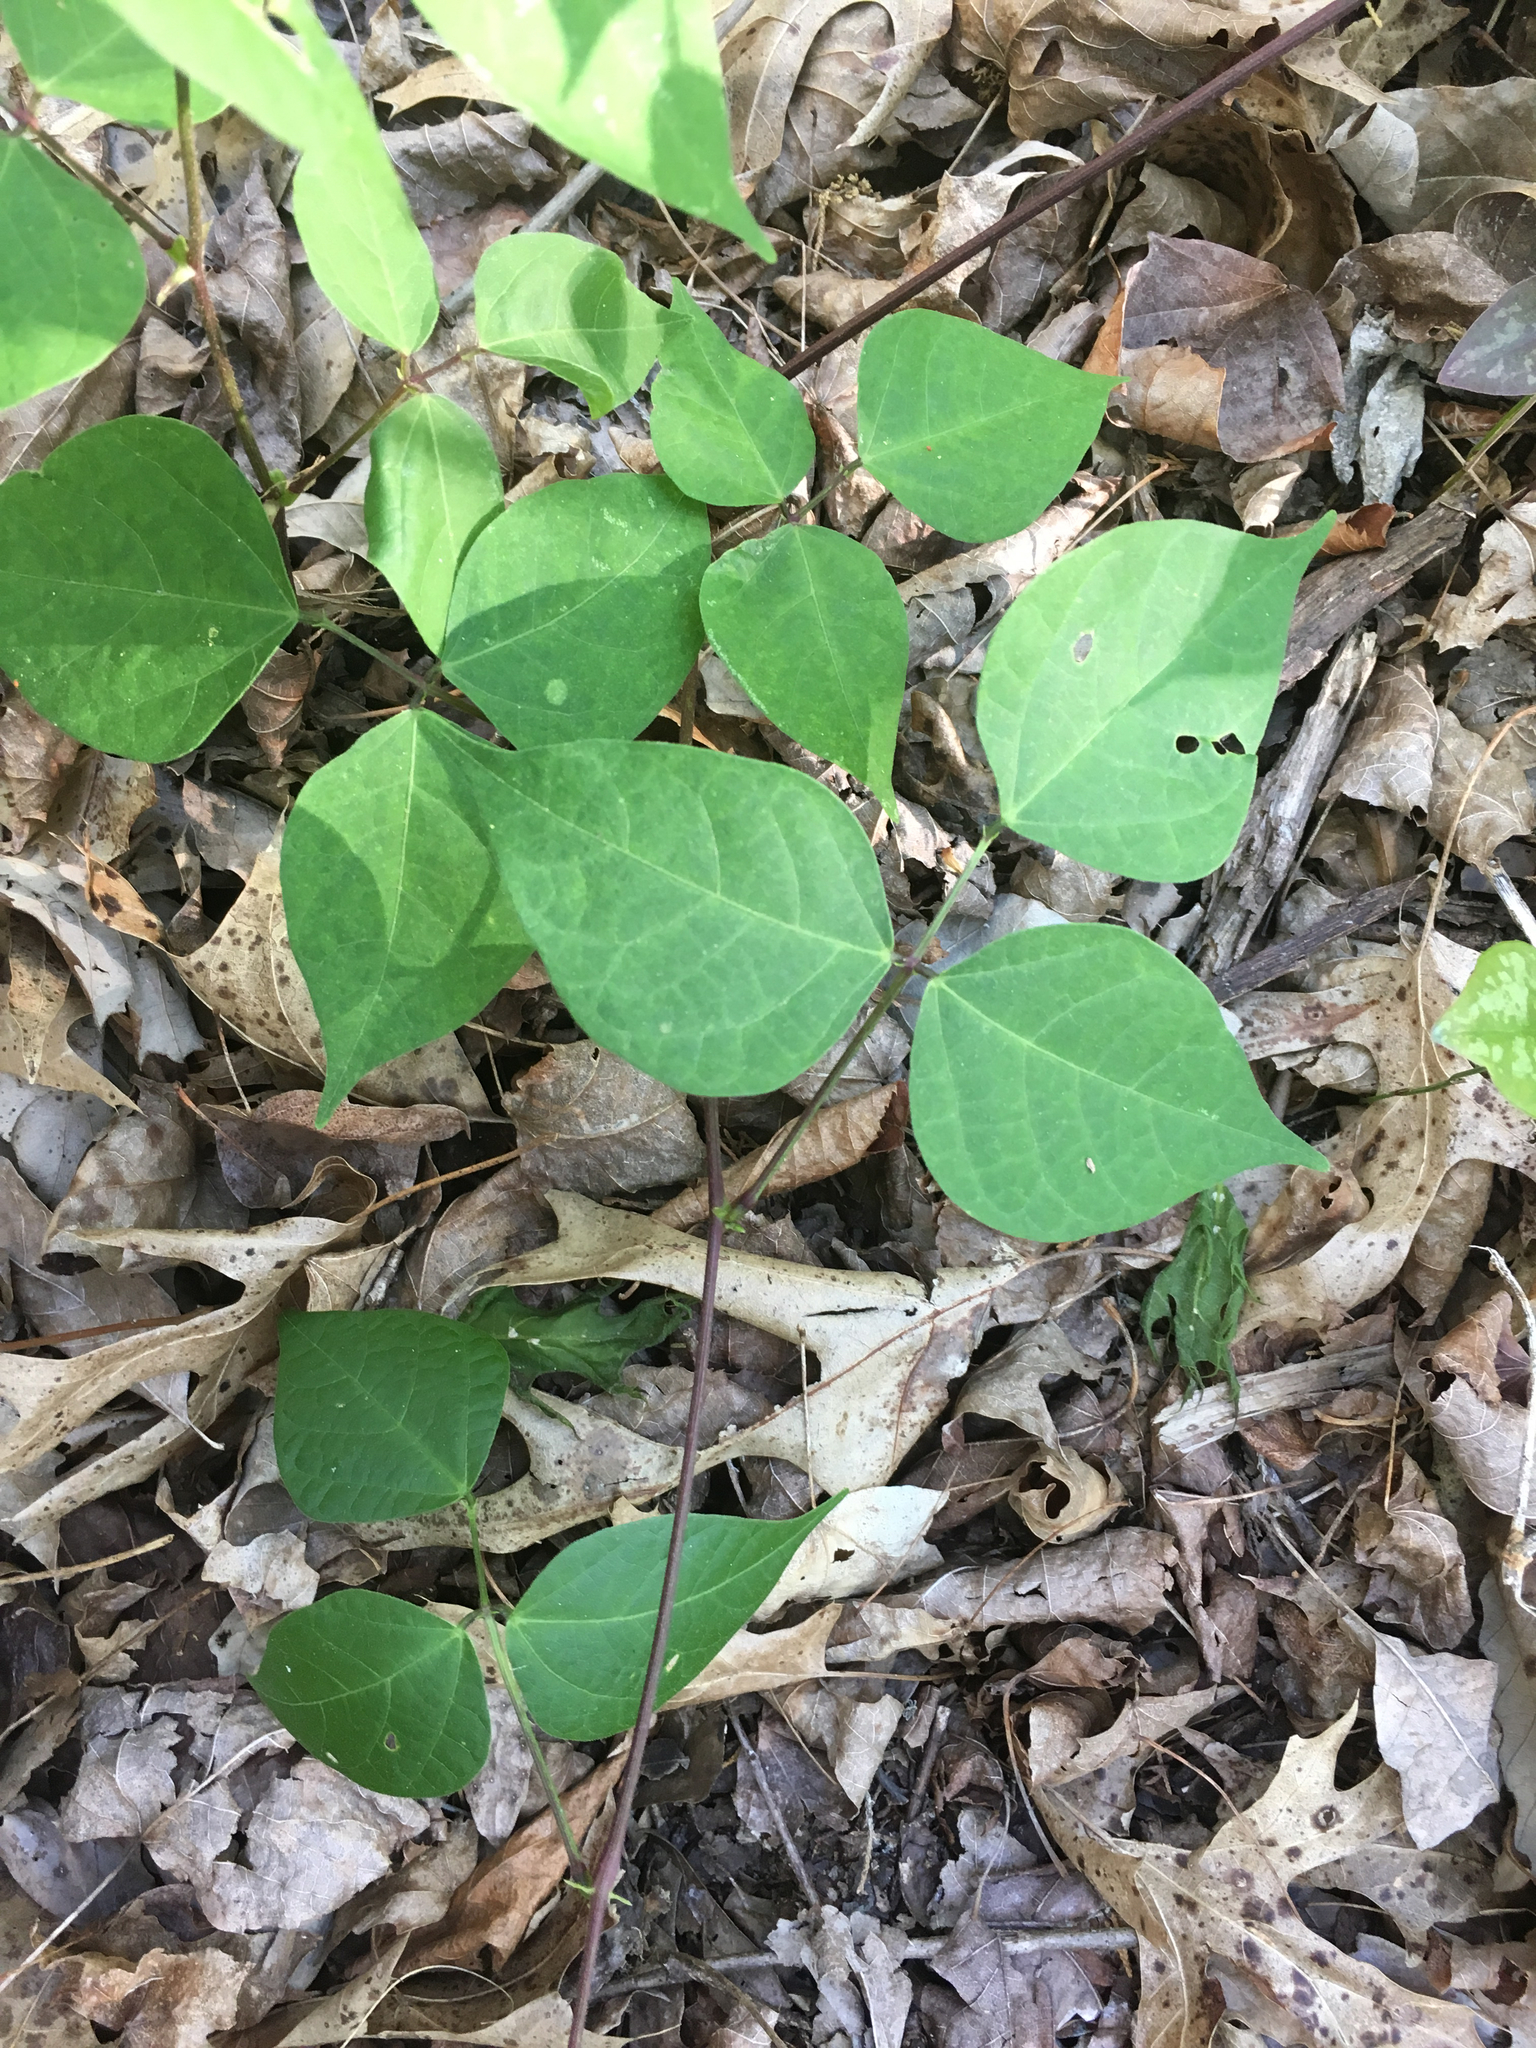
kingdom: Plantae
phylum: Tracheophyta
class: Magnoliopsida
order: Fabales
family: Fabaceae
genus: Phaseolus
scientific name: Phaseolus polystachios
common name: Thicket bean
